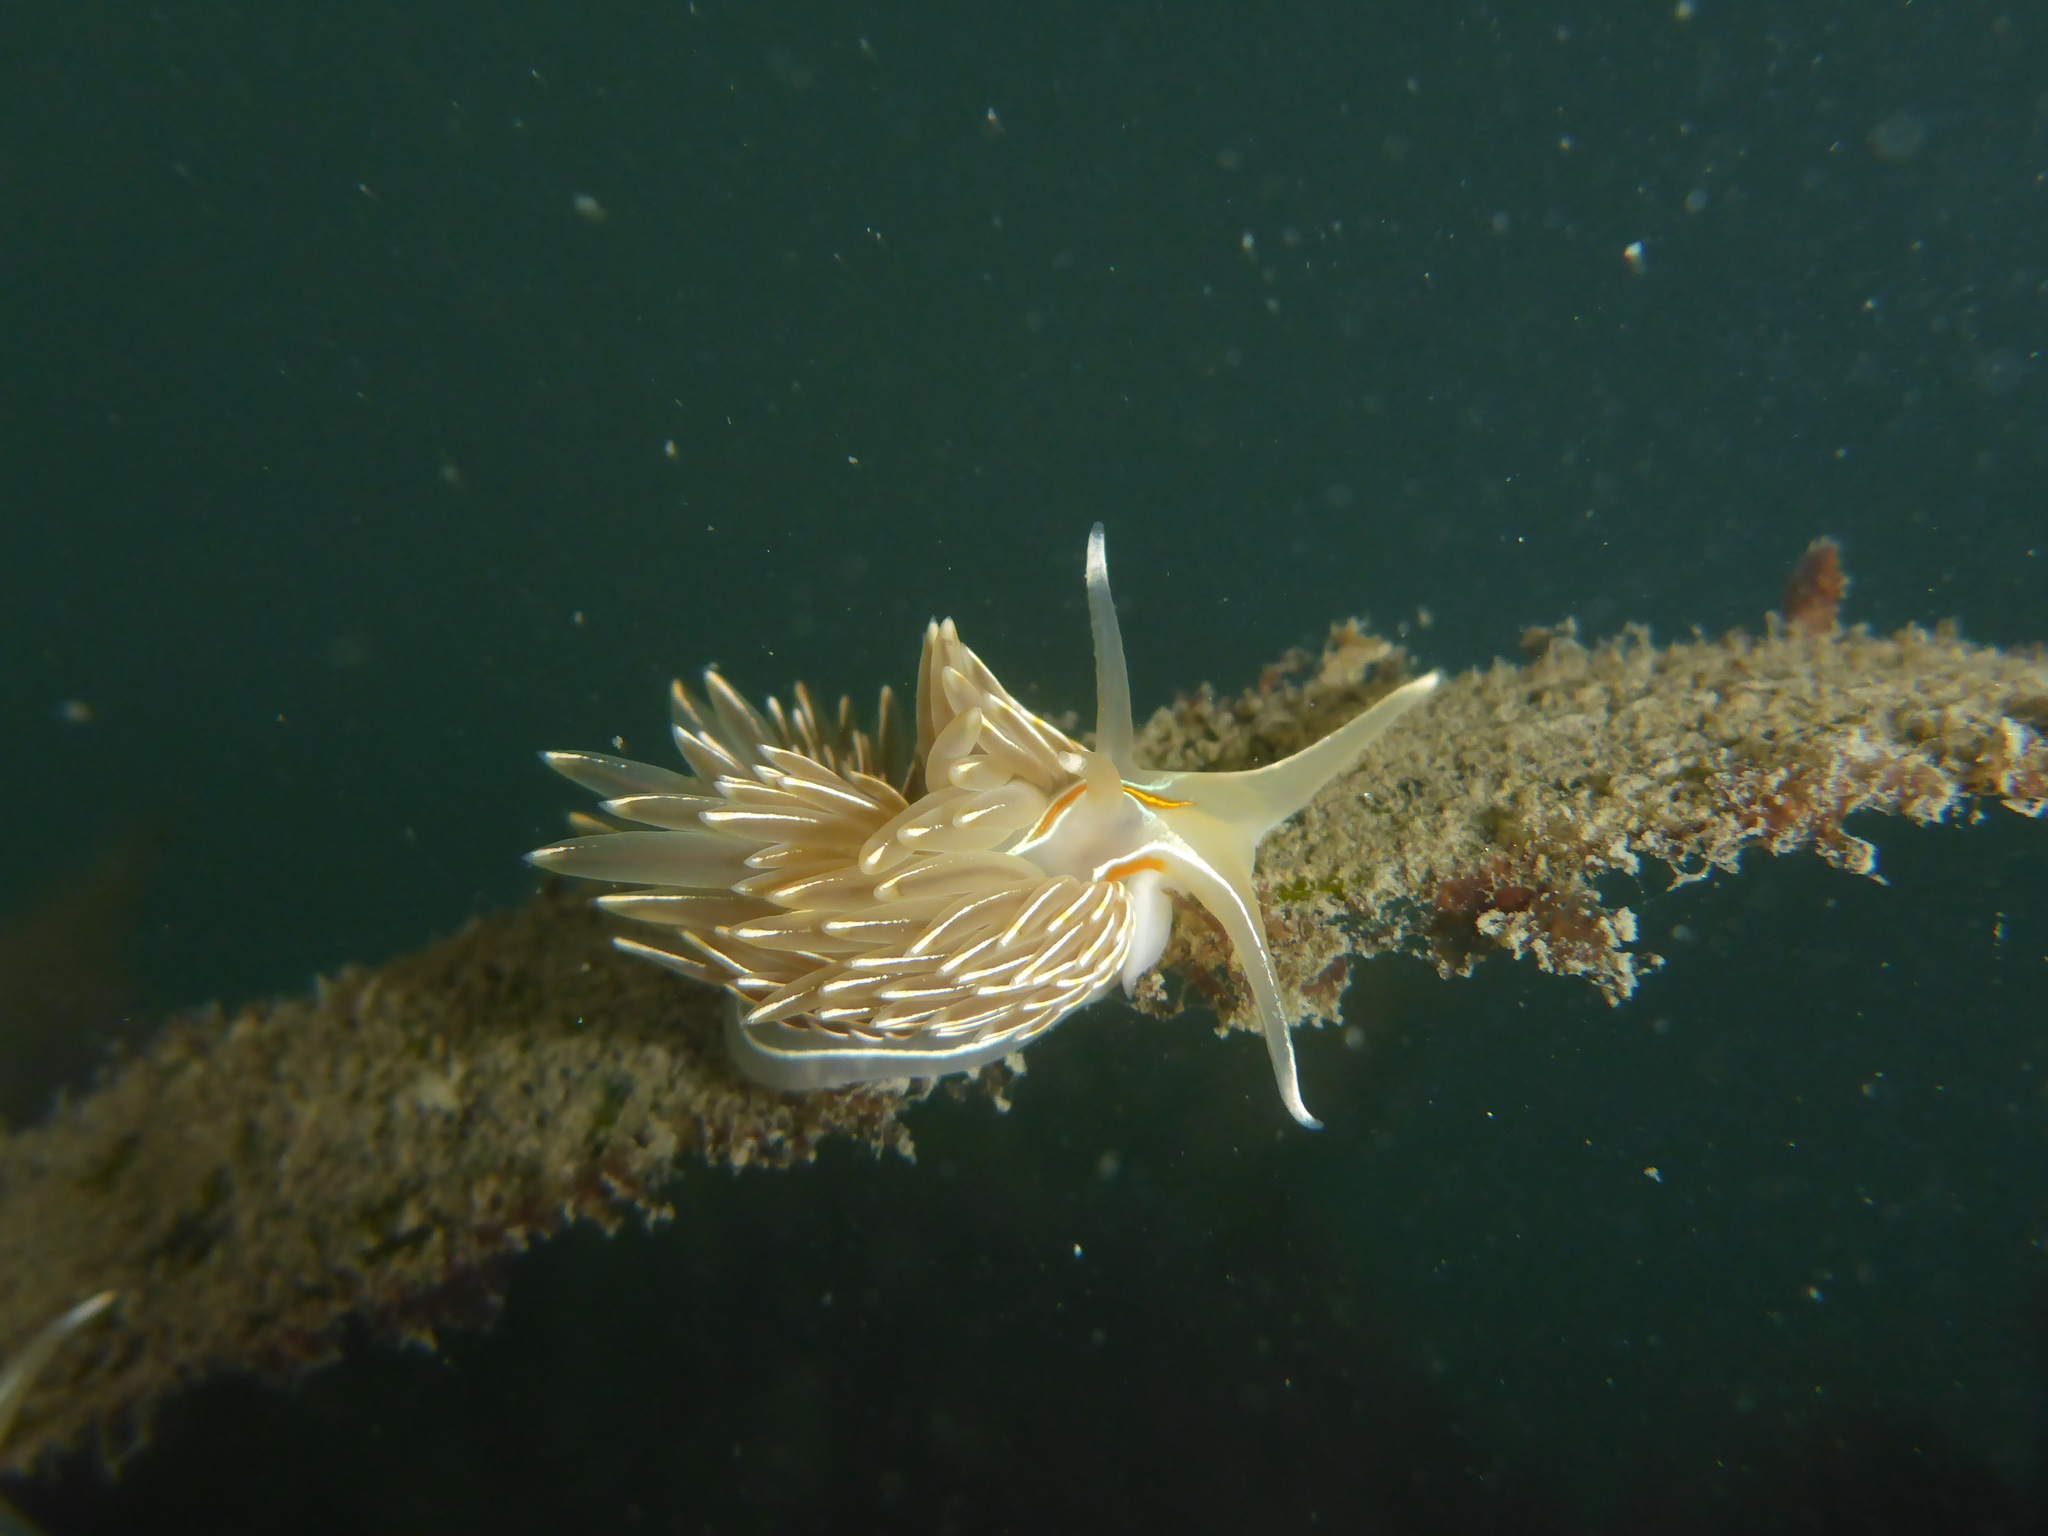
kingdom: Animalia
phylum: Mollusca
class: Gastropoda
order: Nudibranchia
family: Myrrhinidae
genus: Hermissenda
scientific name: Hermissenda crassicornis
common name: Hermissenda
